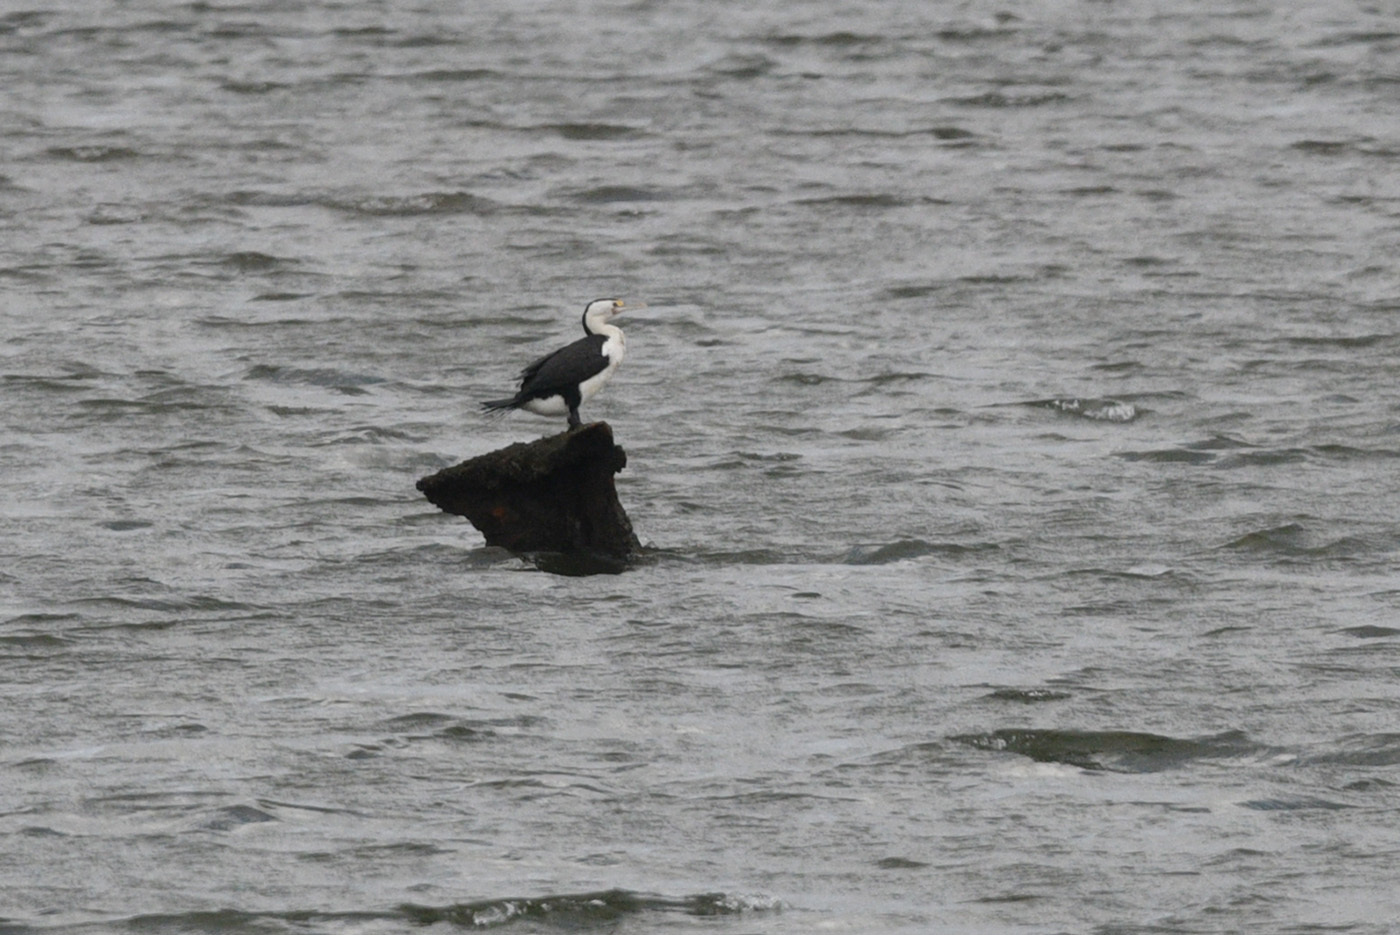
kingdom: Animalia
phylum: Chordata
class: Aves
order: Suliformes
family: Phalacrocoracidae
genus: Phalacrocorax
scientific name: Phalacrocorax varius
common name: Pied cormorant
